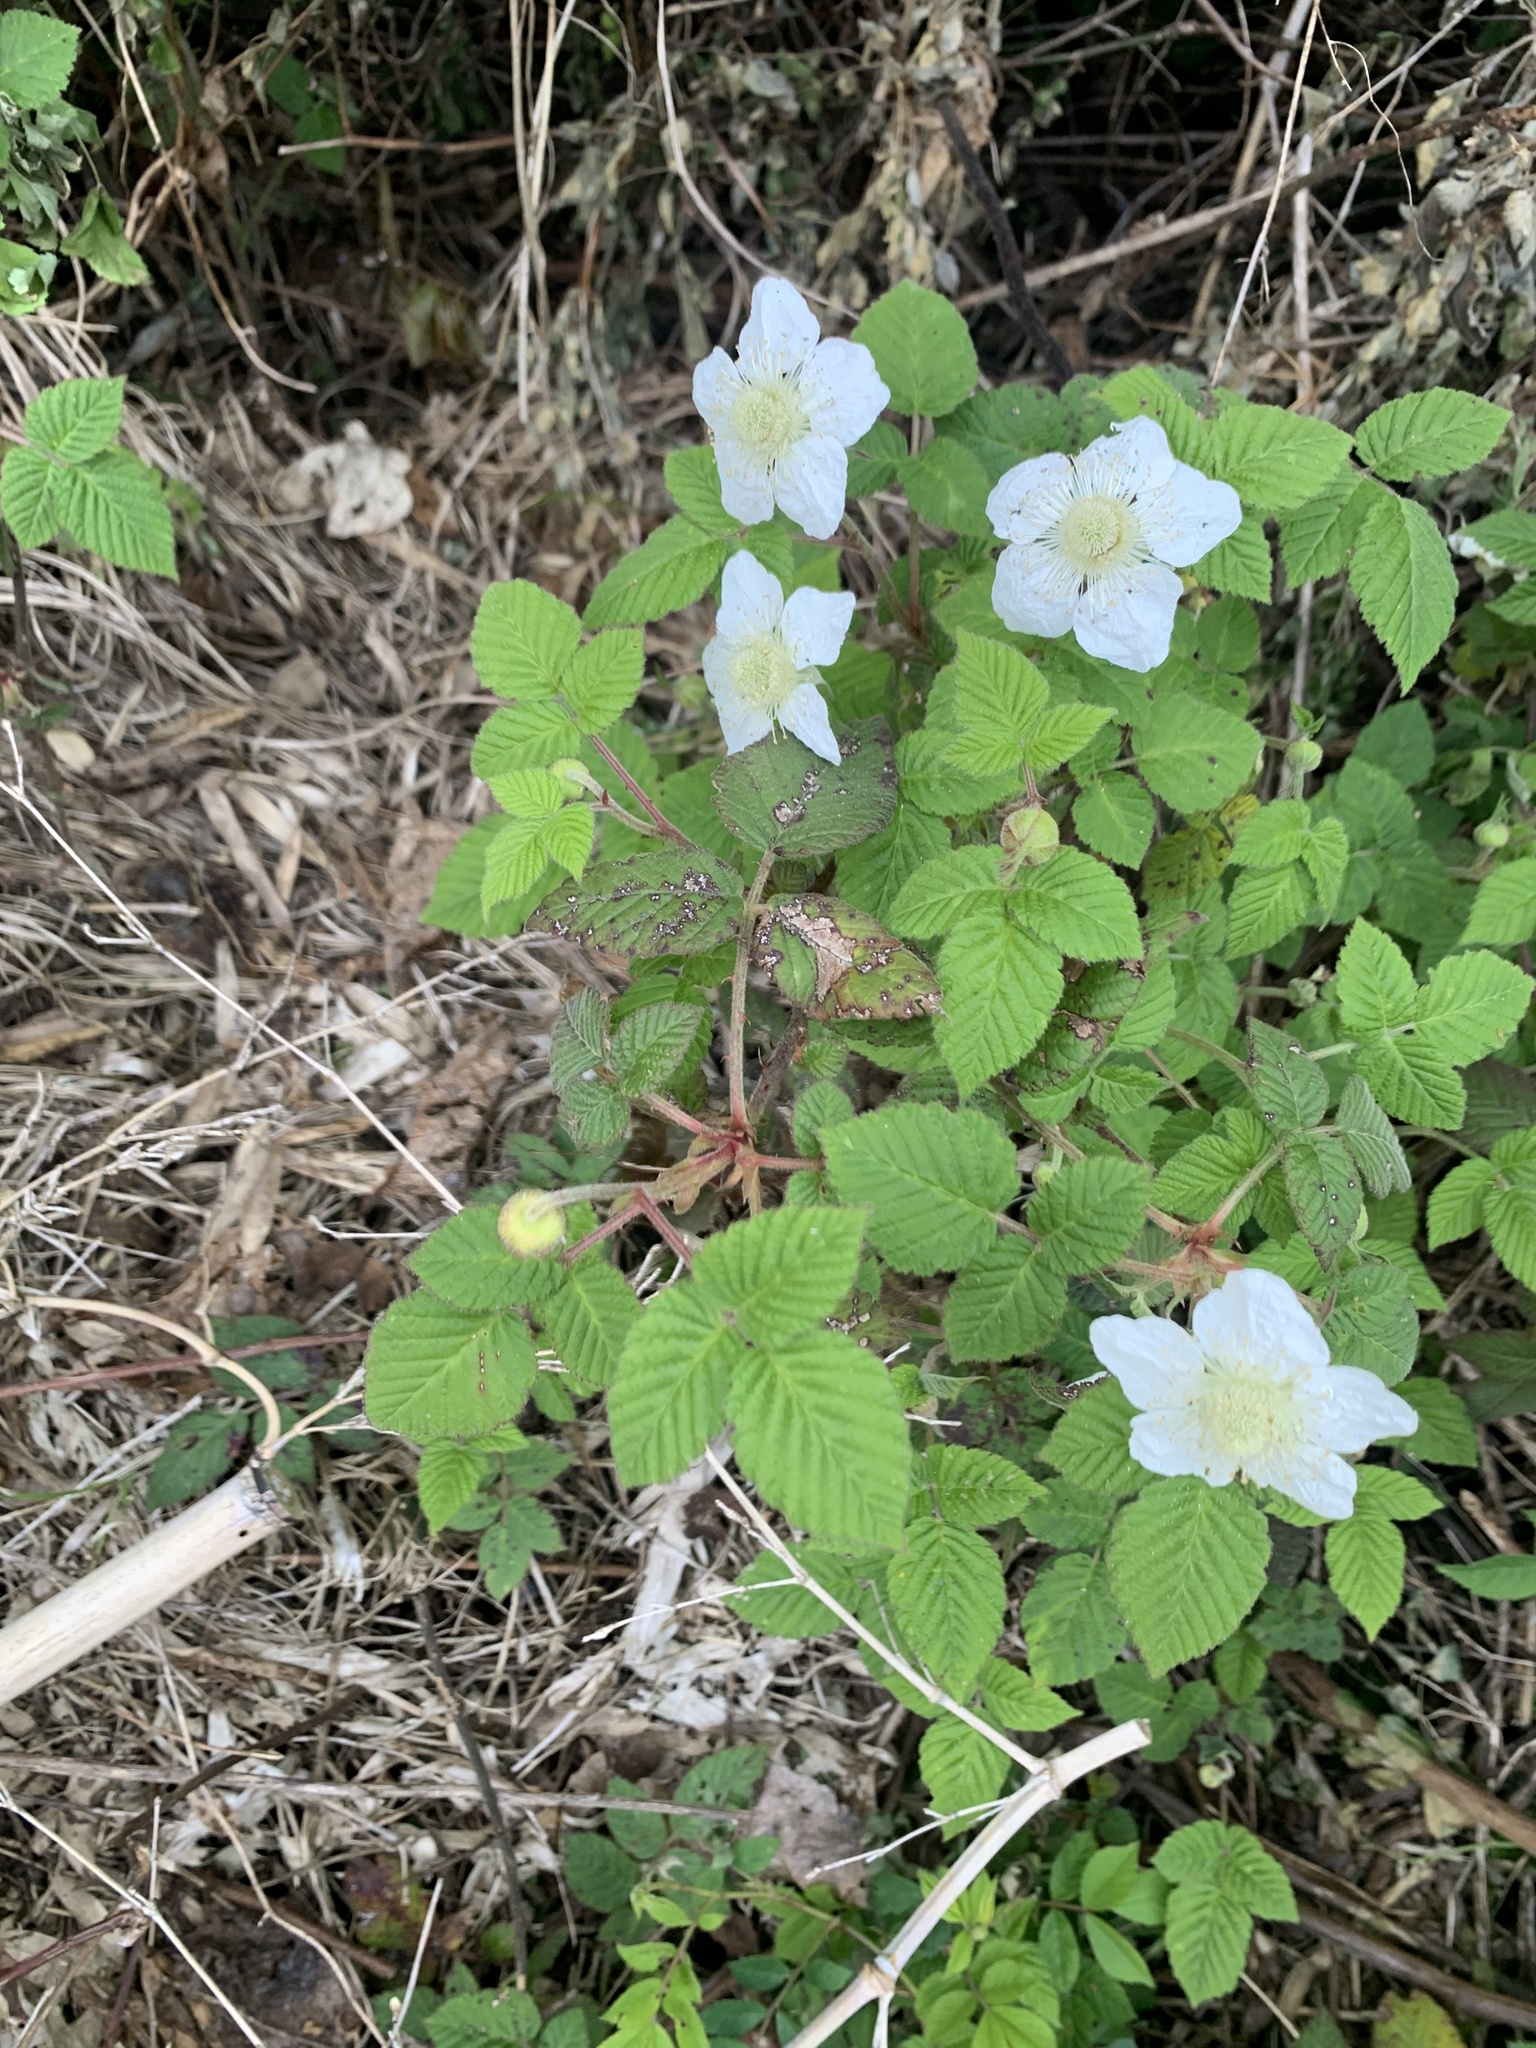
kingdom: Plantae
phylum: Tracheophyta
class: Magnoliopsida
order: Rosales
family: Rosaceae
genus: Rubus
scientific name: Rubus hirsutus
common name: Hirsute raspberry
